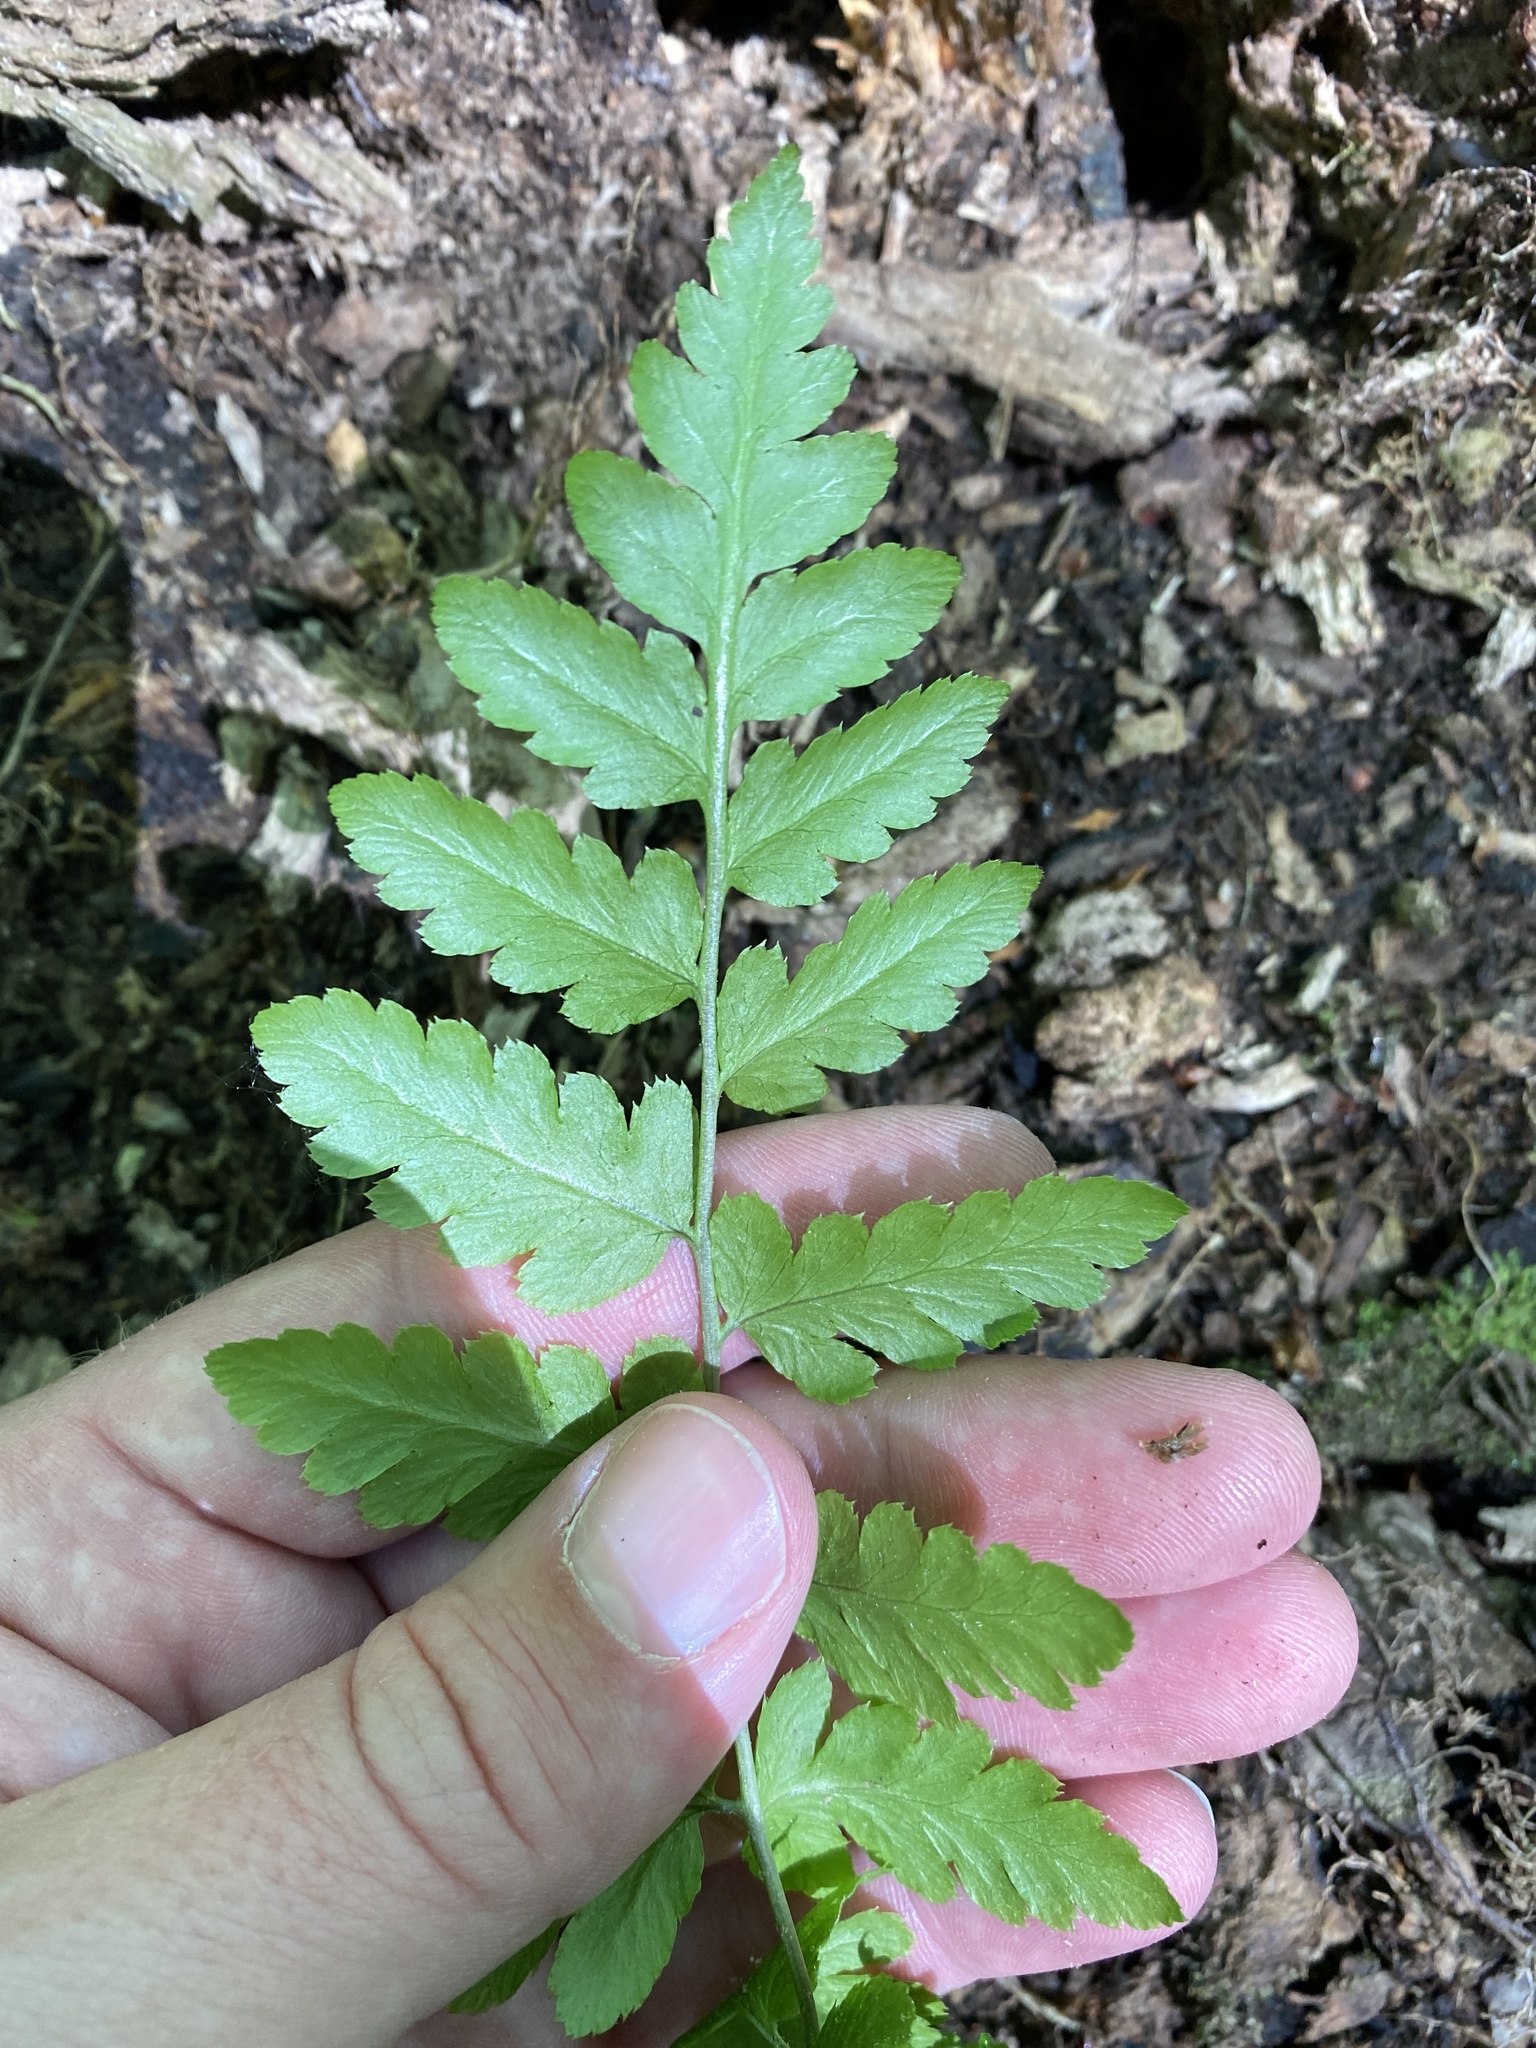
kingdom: Plantae
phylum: Tracheophyta
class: Polypodiopsida
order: Polypodiales
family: Dryopteridaceae
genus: Dryopteris
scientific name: Dryopteris cristata
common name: Crested wood fern
